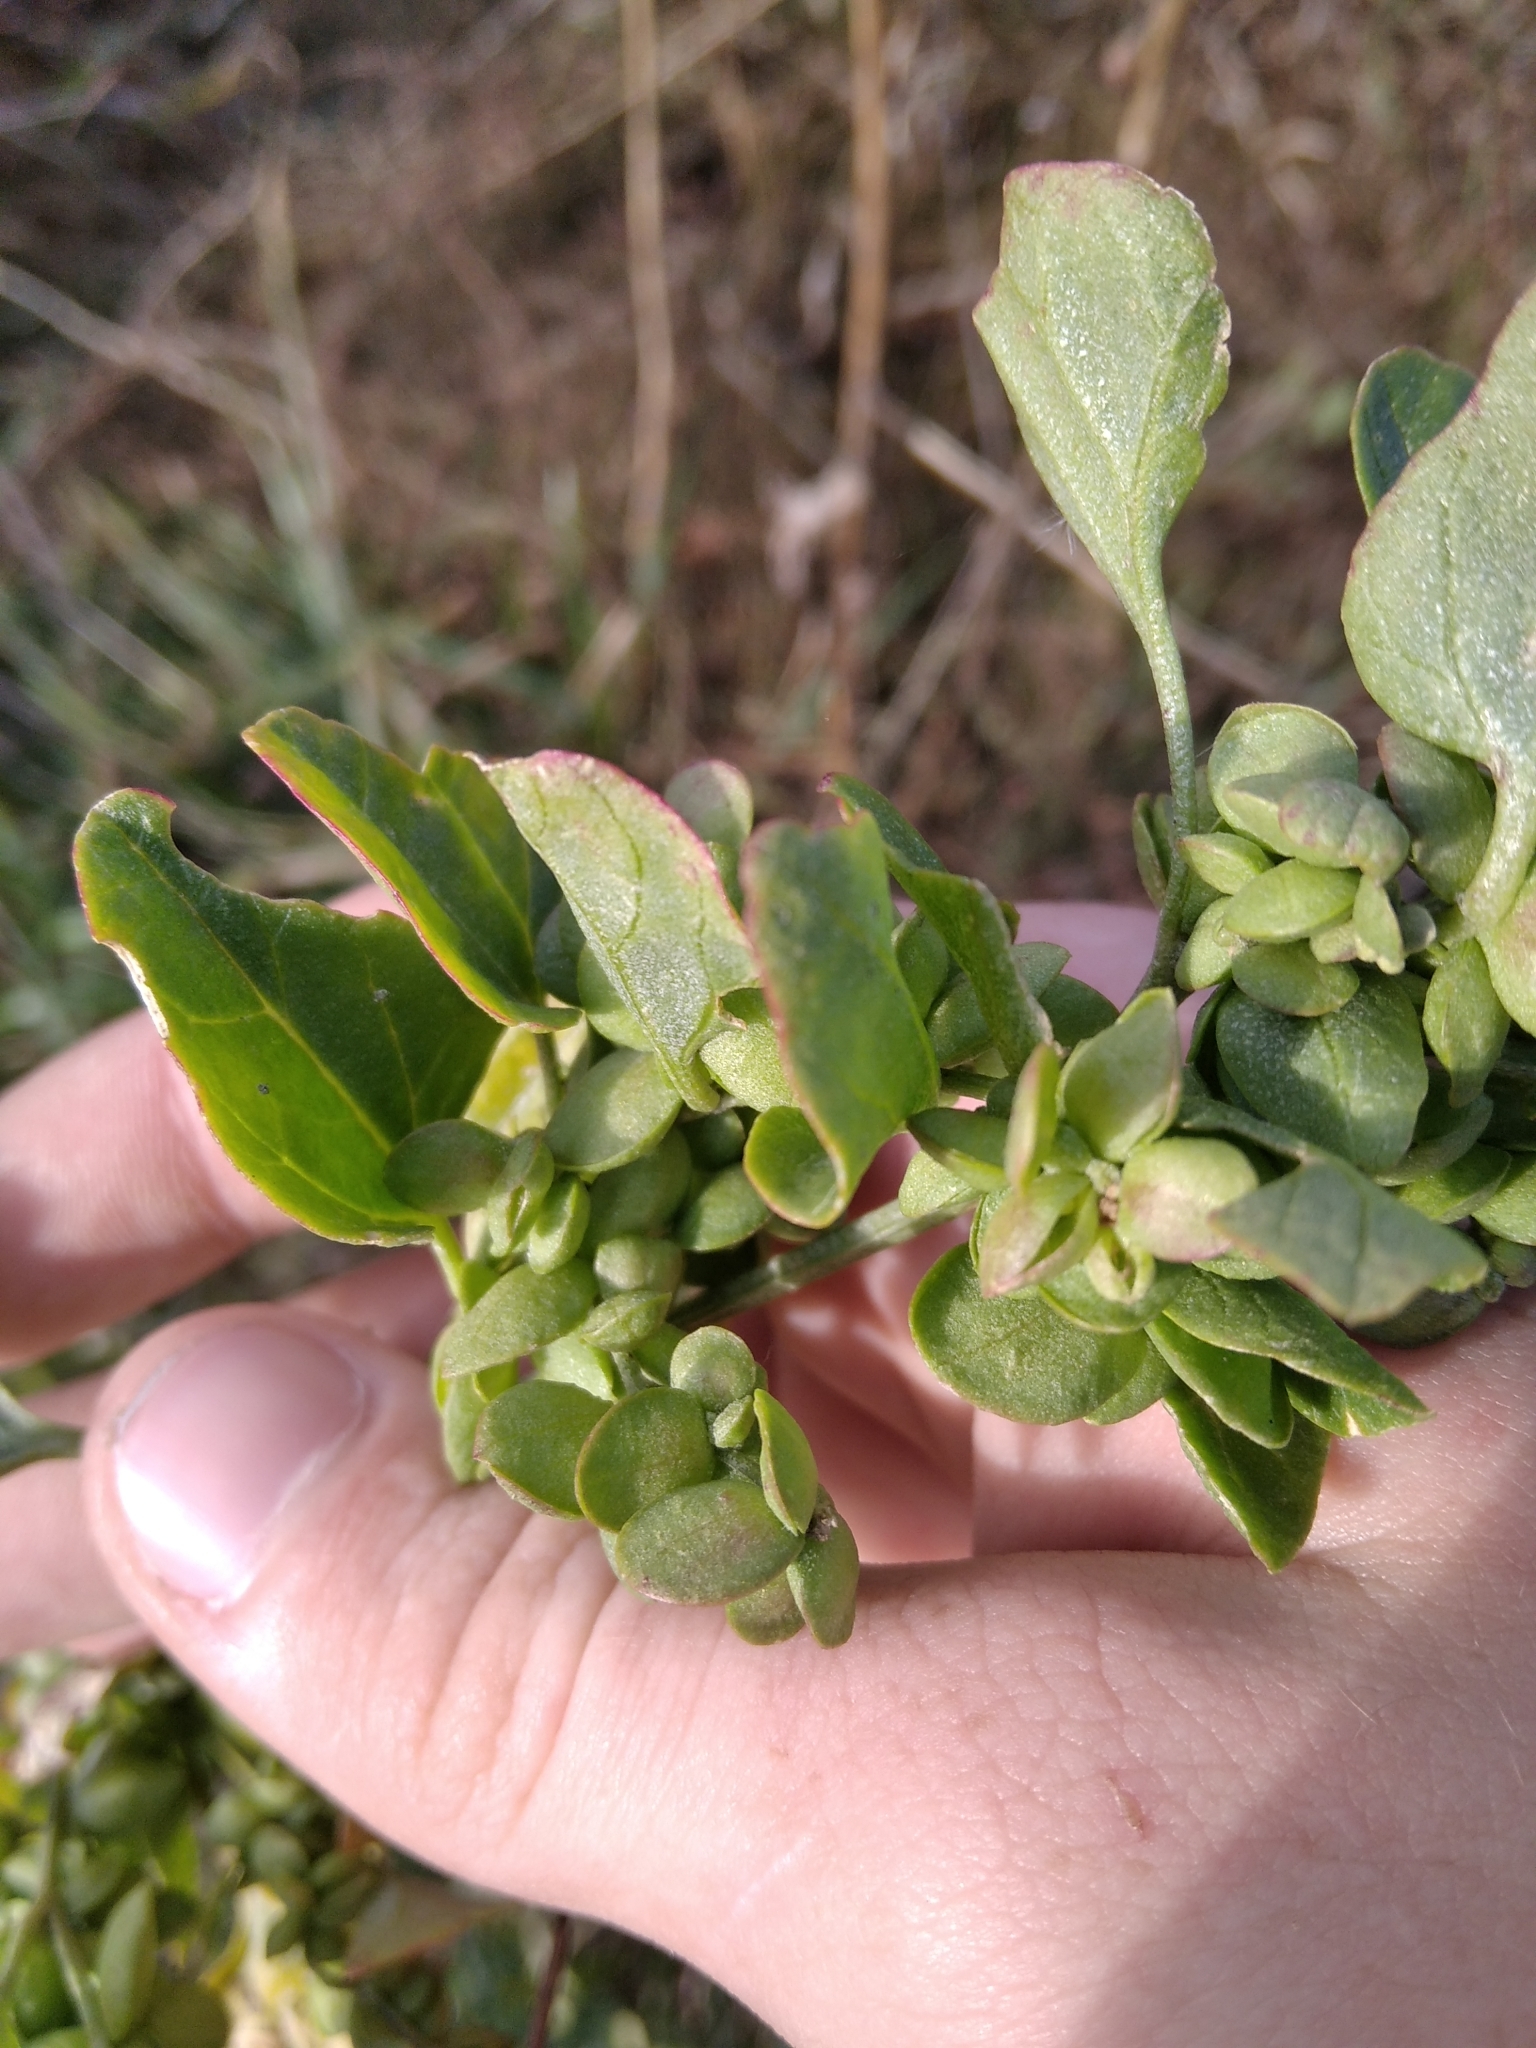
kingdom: Plantae
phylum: Tracheophyta
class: Magnoliopsida
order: Caryophyllales
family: Amaranthaceae
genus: Atriplex
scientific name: Atriplex sagittata
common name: Purple orache
